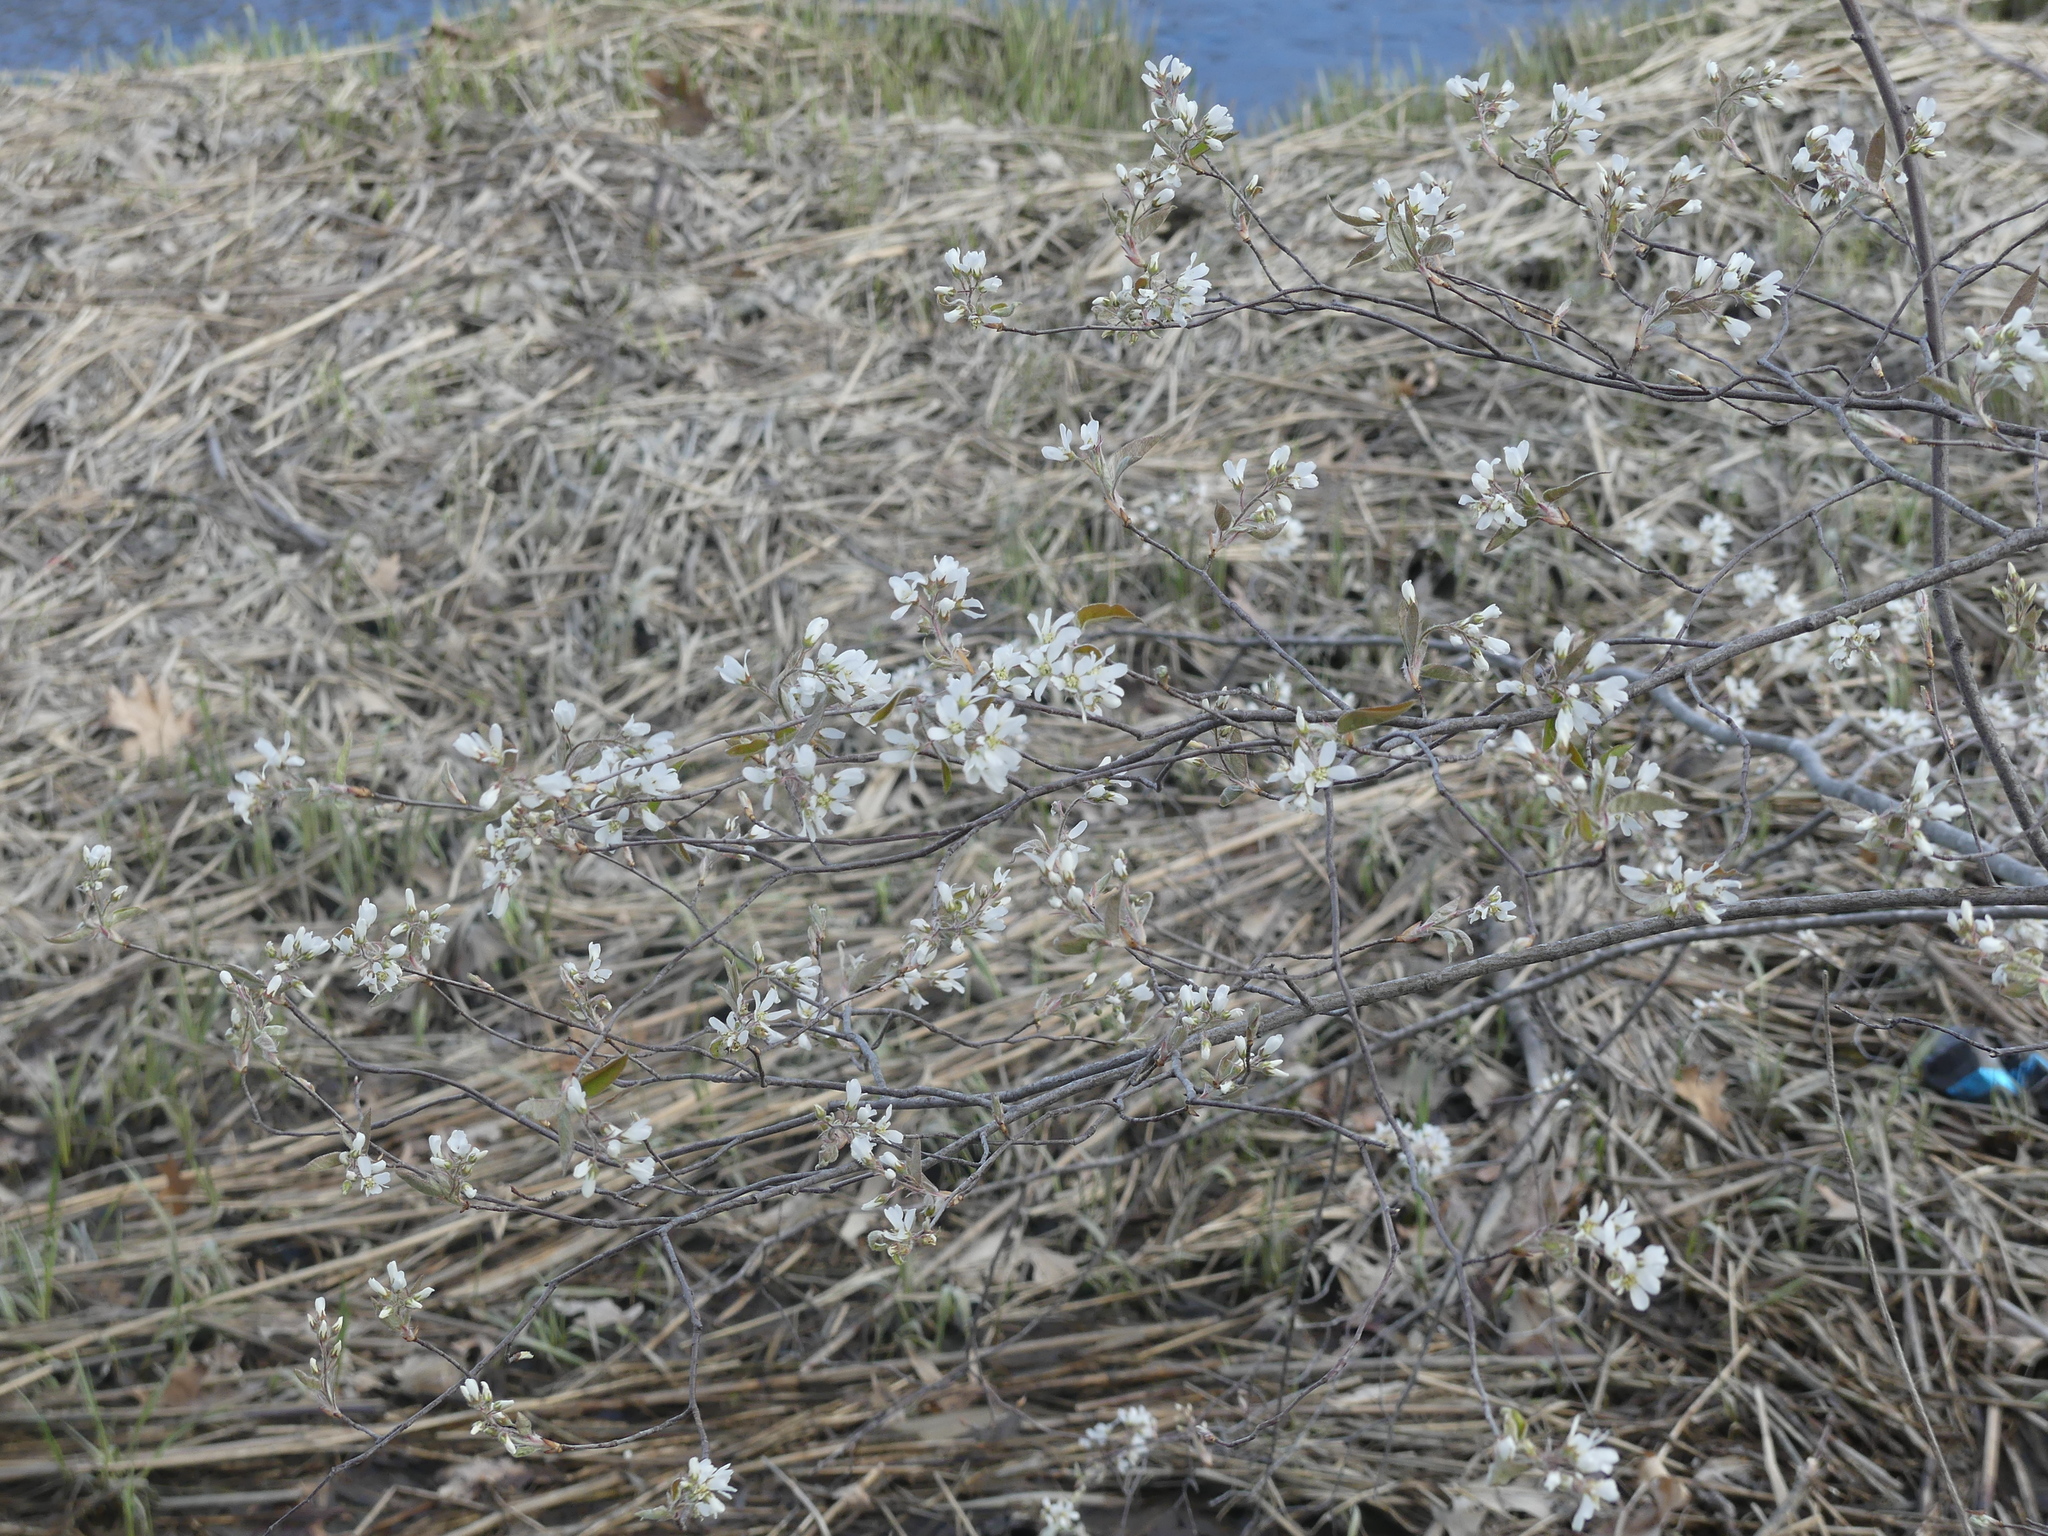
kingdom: Plantae
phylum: Tracheophyta
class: Magnoliopsida
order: Rosales
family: Rosaceae
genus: Amelanchier
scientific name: Amelanchier arborea
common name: Downy serviceberry
